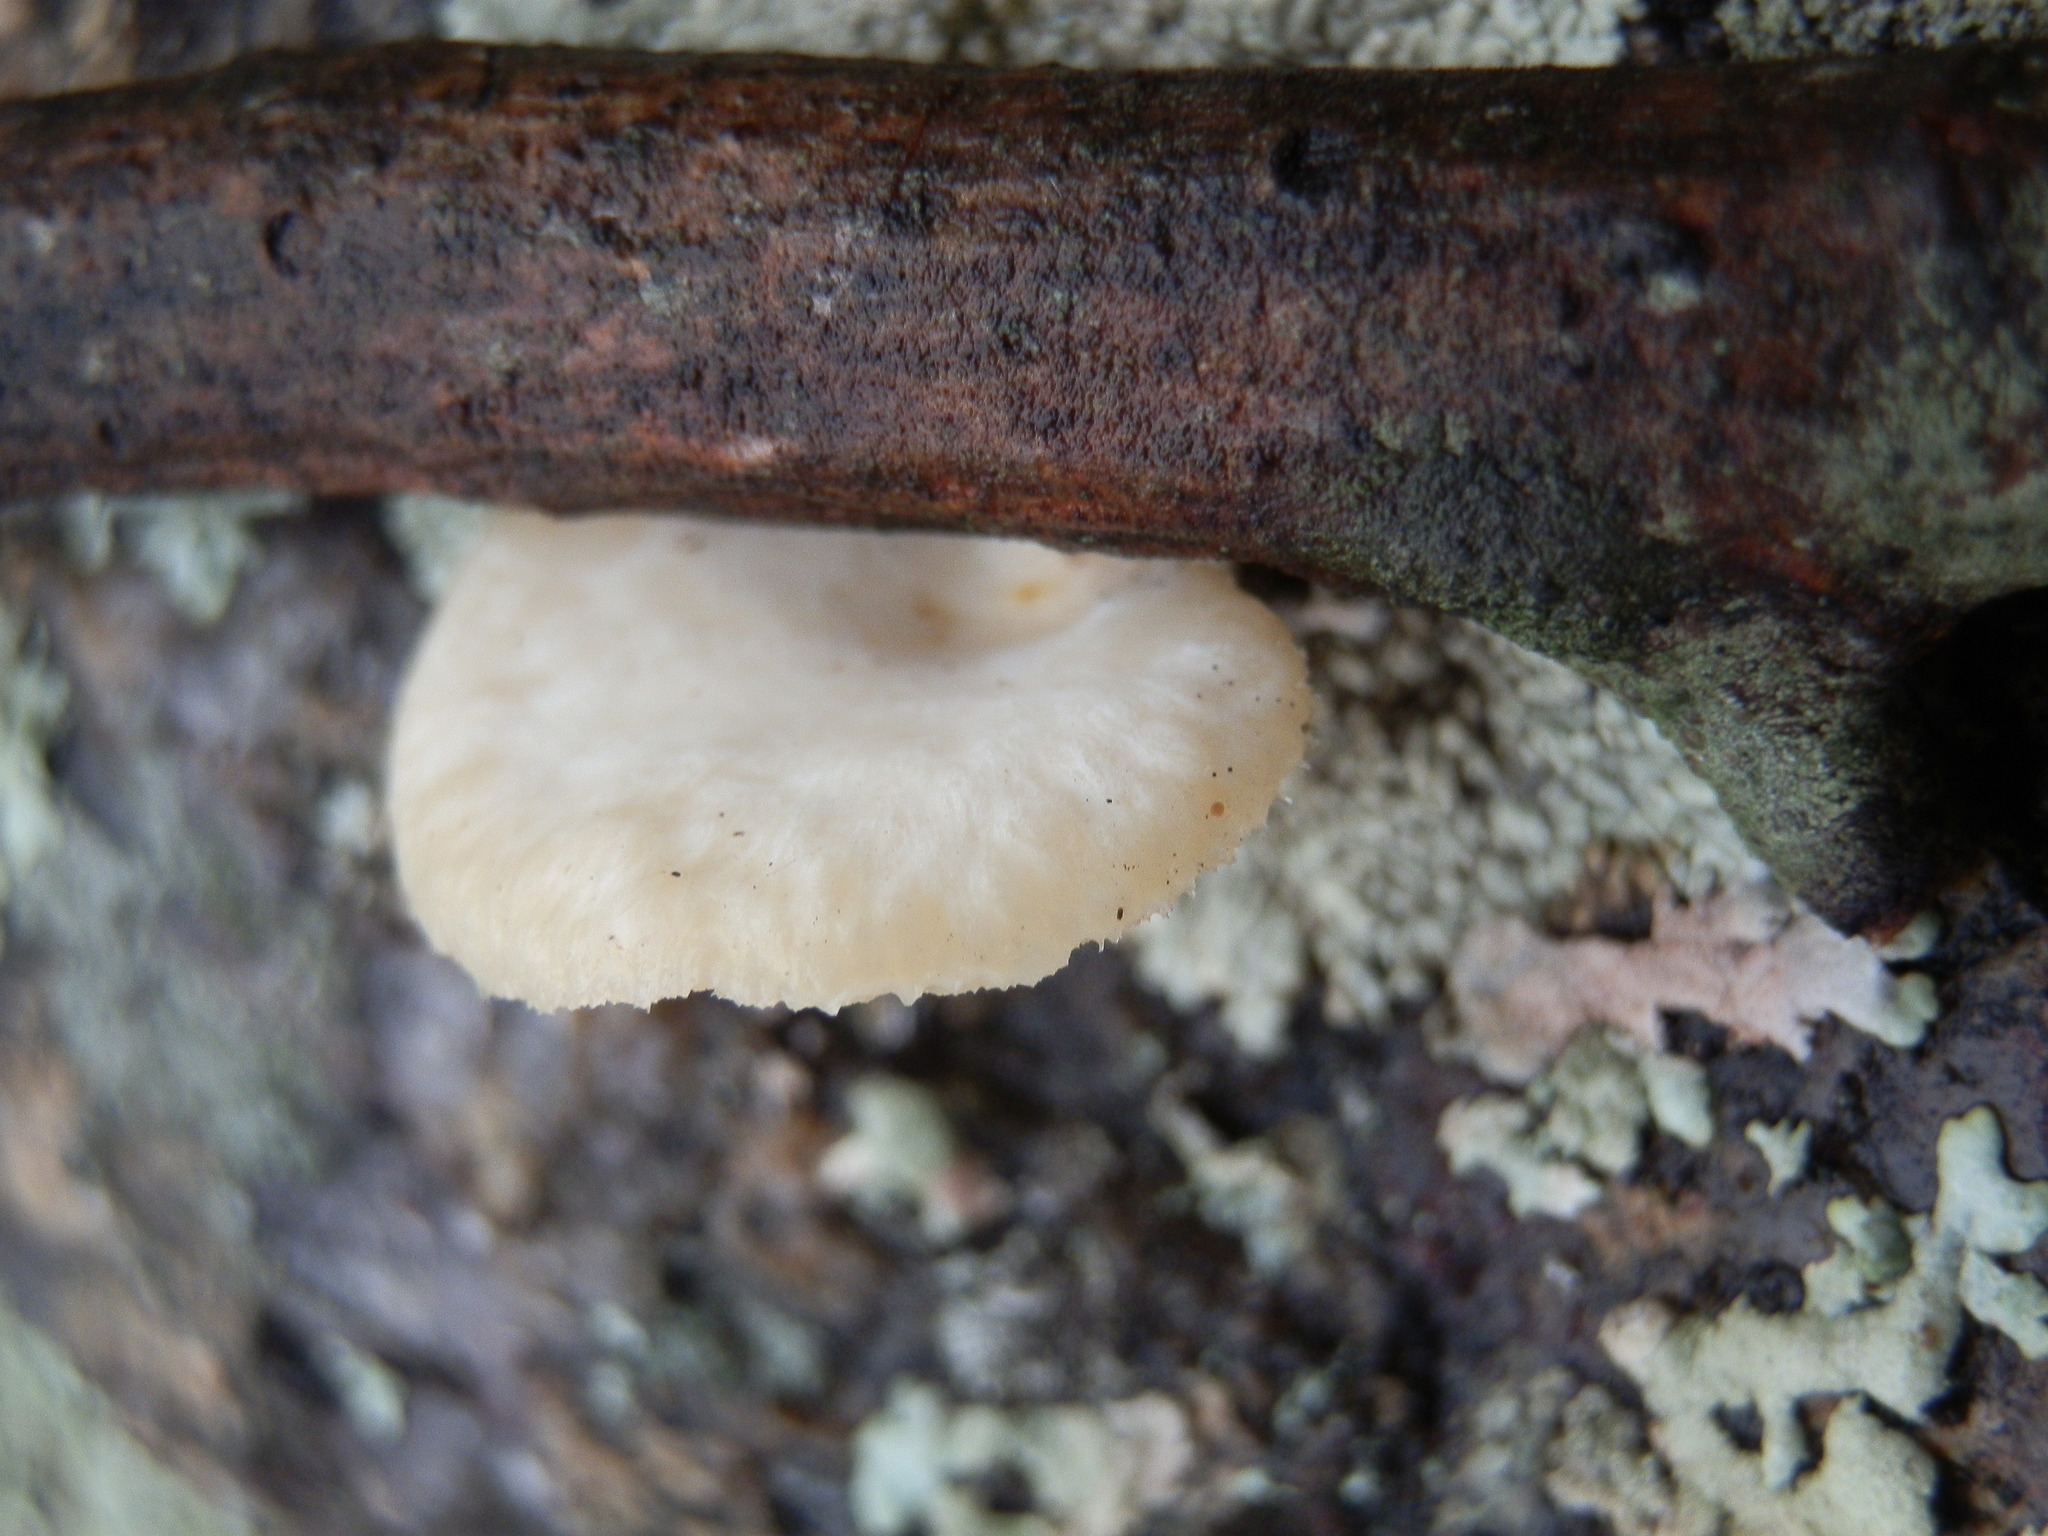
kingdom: Fungi
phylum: Basidiomycota
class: Agaricomycetes
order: Polyporales
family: Polyporaceae
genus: Neofavolus
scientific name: Neofavolus alveolaris
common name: Hexagonal-pored polypore
